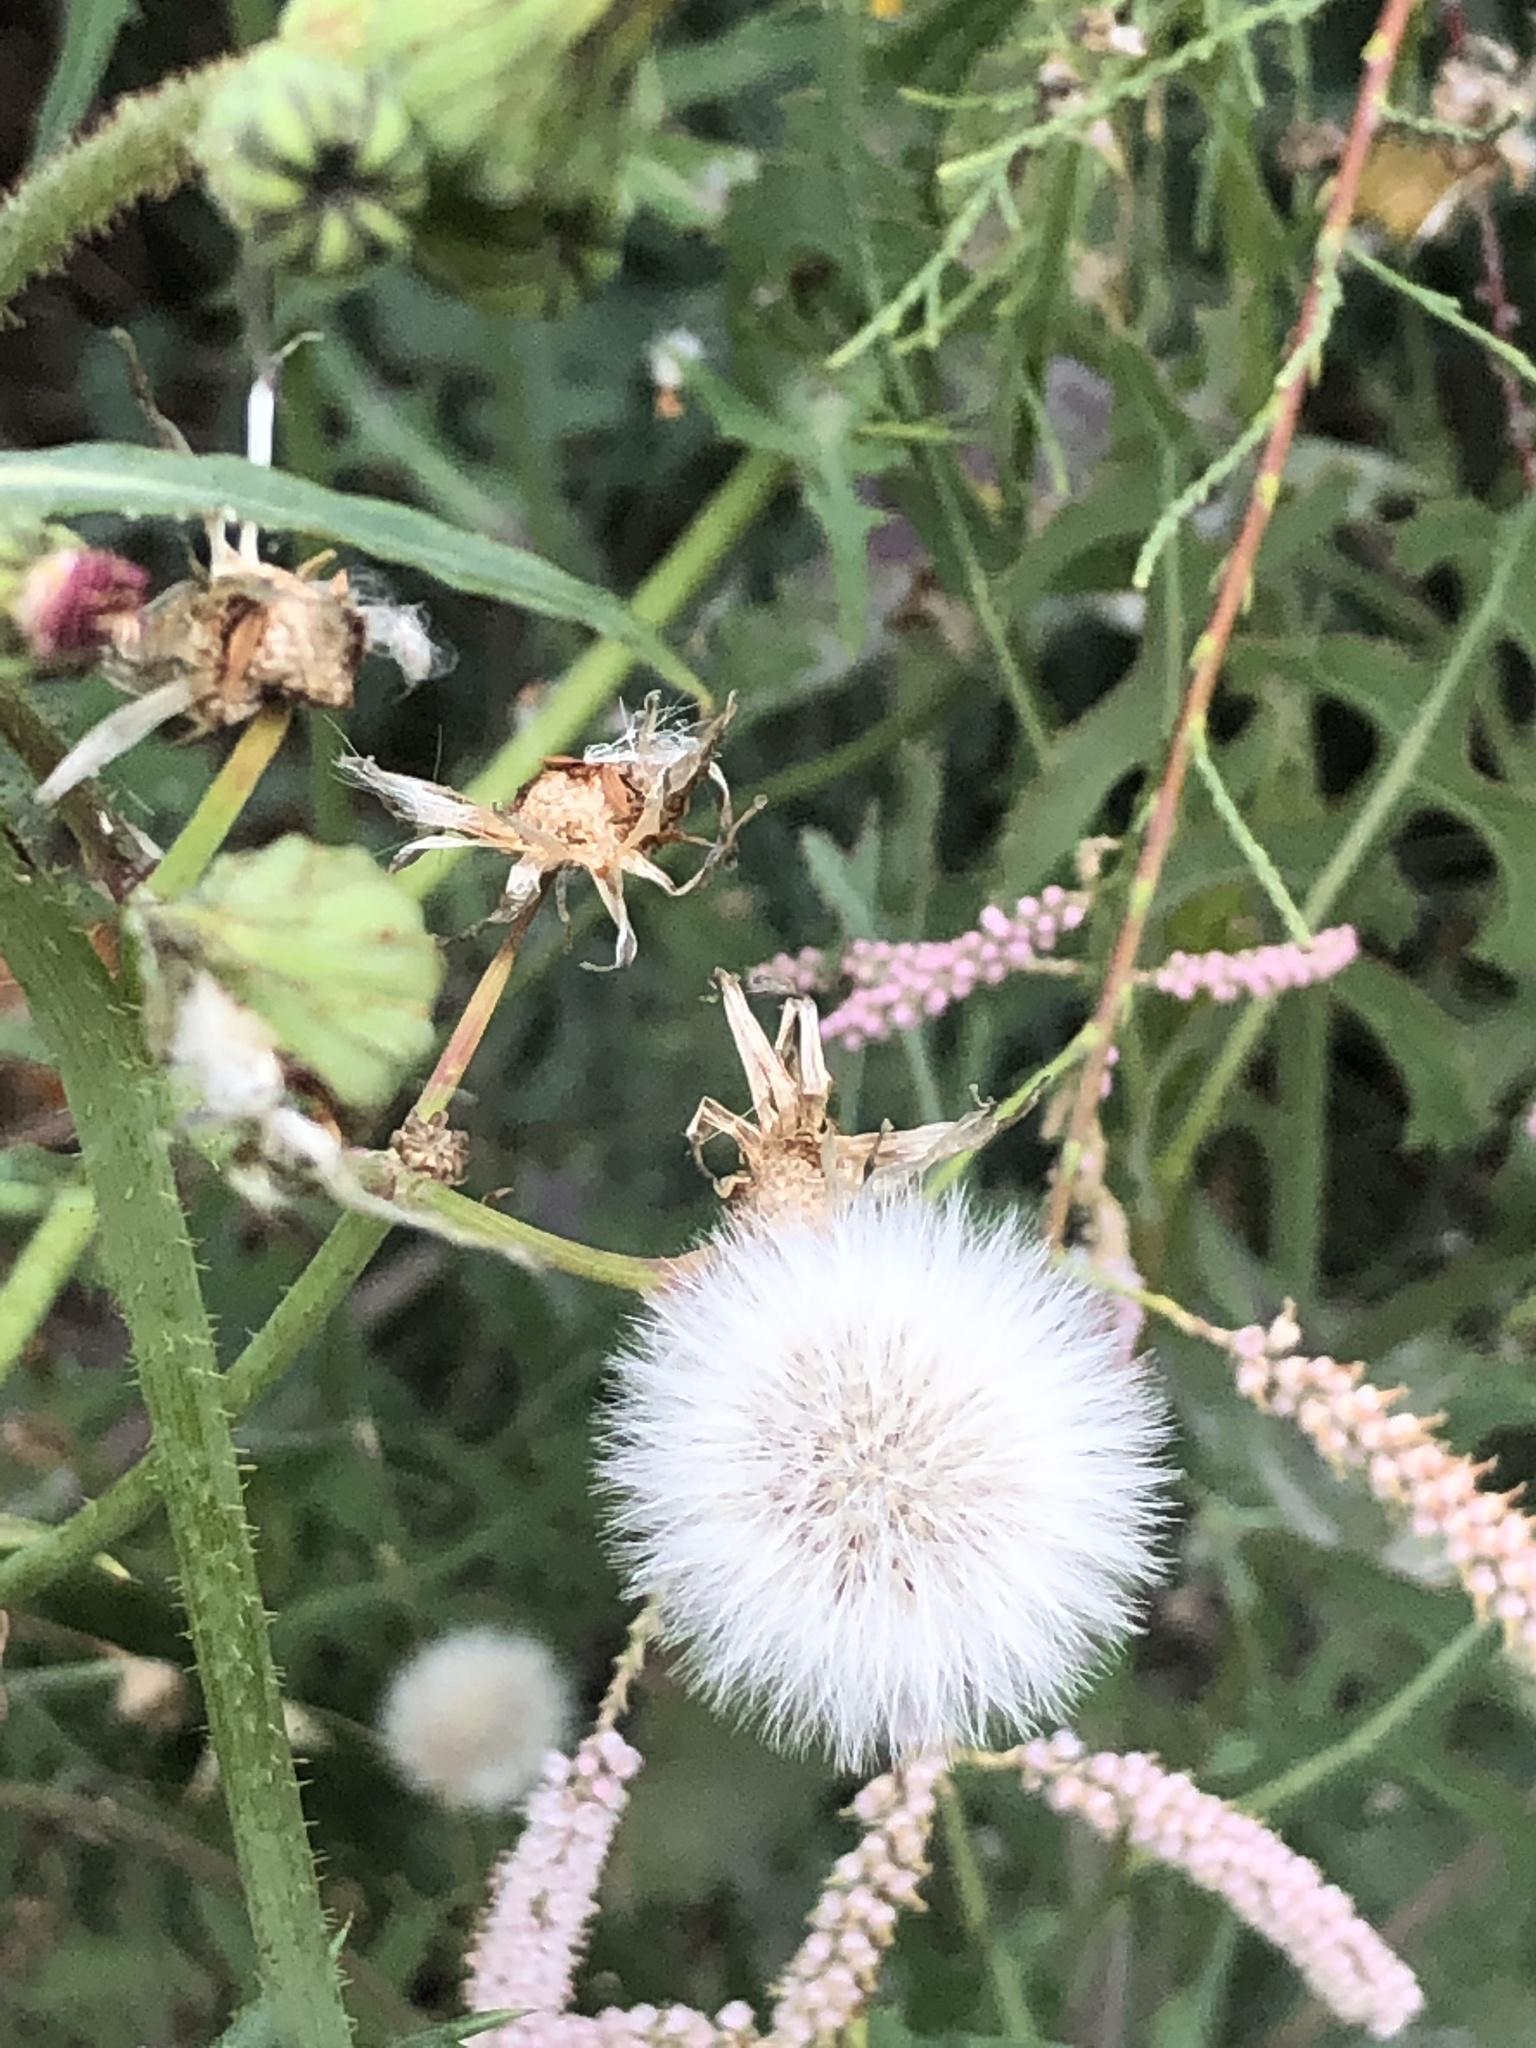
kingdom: Plantae
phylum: Tracheophyta
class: Magnoliopsida
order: Asterales
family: Asteraceae
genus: Lactuca
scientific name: Lactuca serriola
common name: Prickly lettuce
